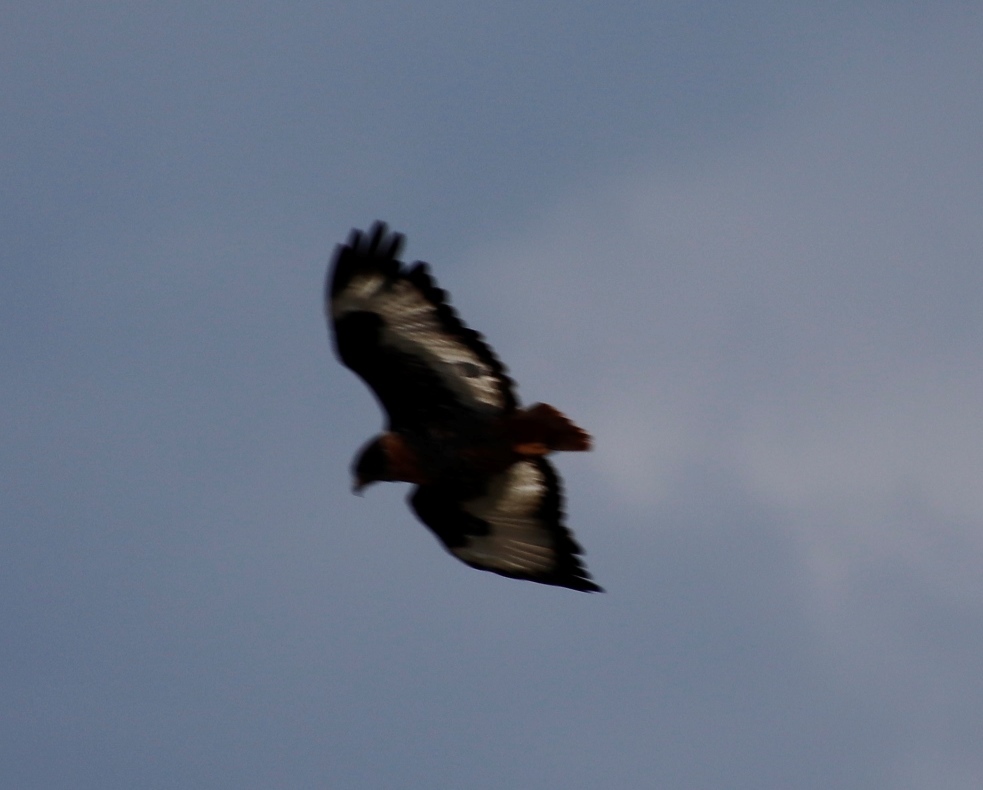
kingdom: Animalia
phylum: Chordata
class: Aves
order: Accipitriformes
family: Accipitridae
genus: Buteo
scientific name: Buteo rufofuscus
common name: Jackal buzzard
